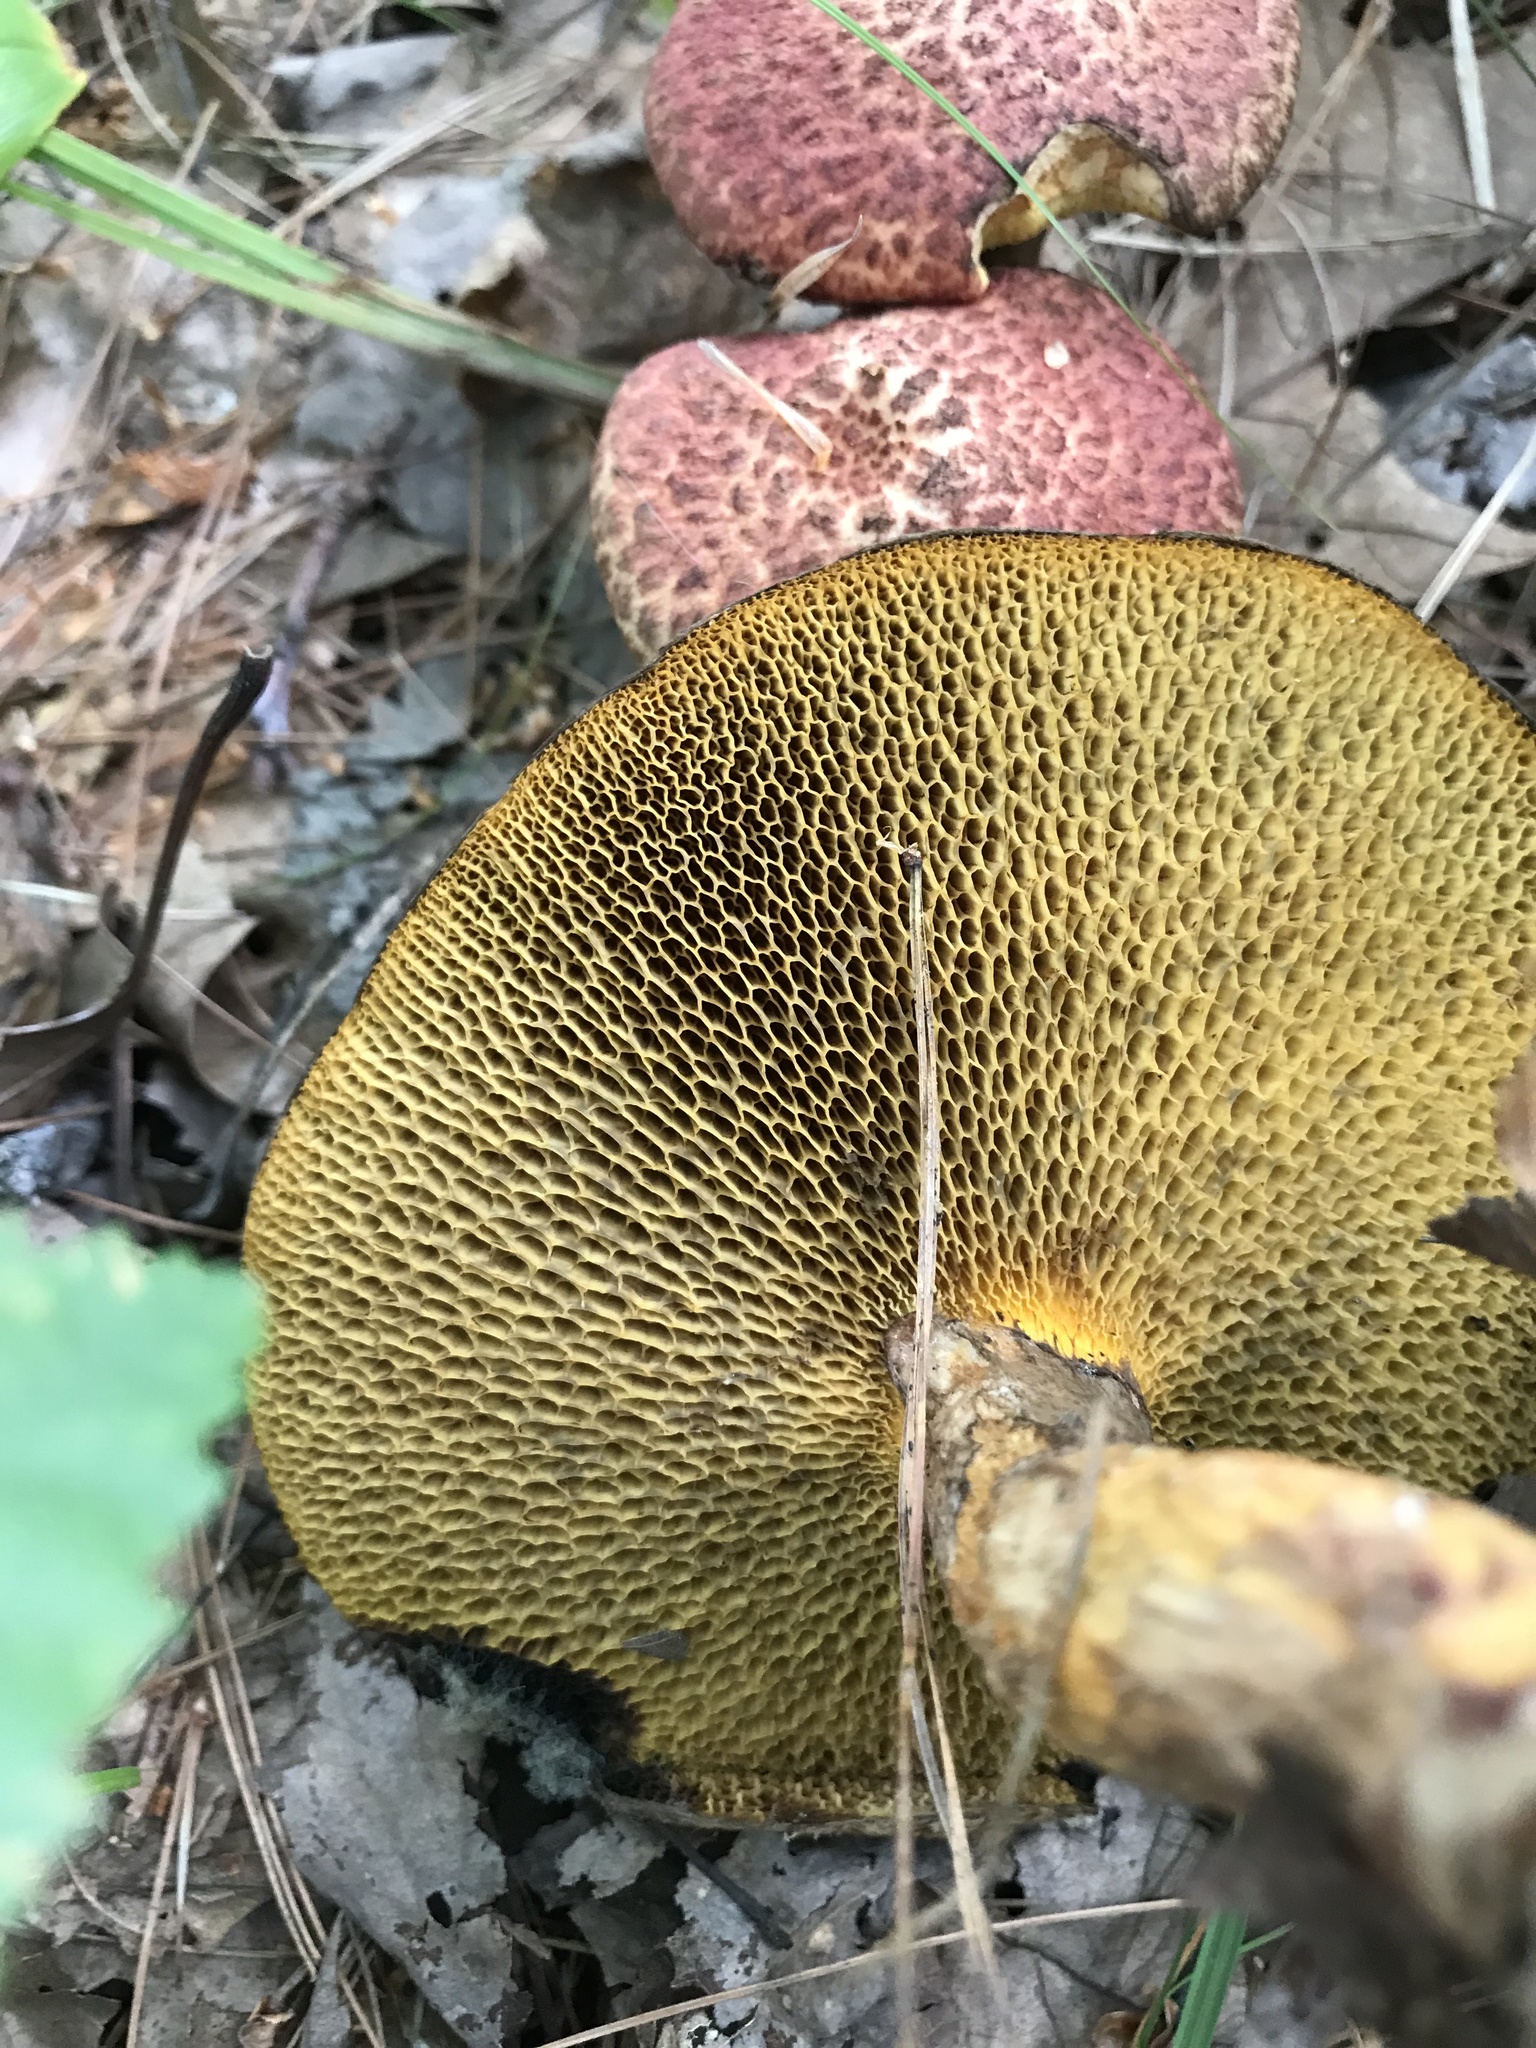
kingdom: Fungi
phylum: Basidiomycota
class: Agaricomycetes
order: Boletales
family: Suillaceae
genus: Suillus
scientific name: Suillus spraguei
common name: Painted suillus
